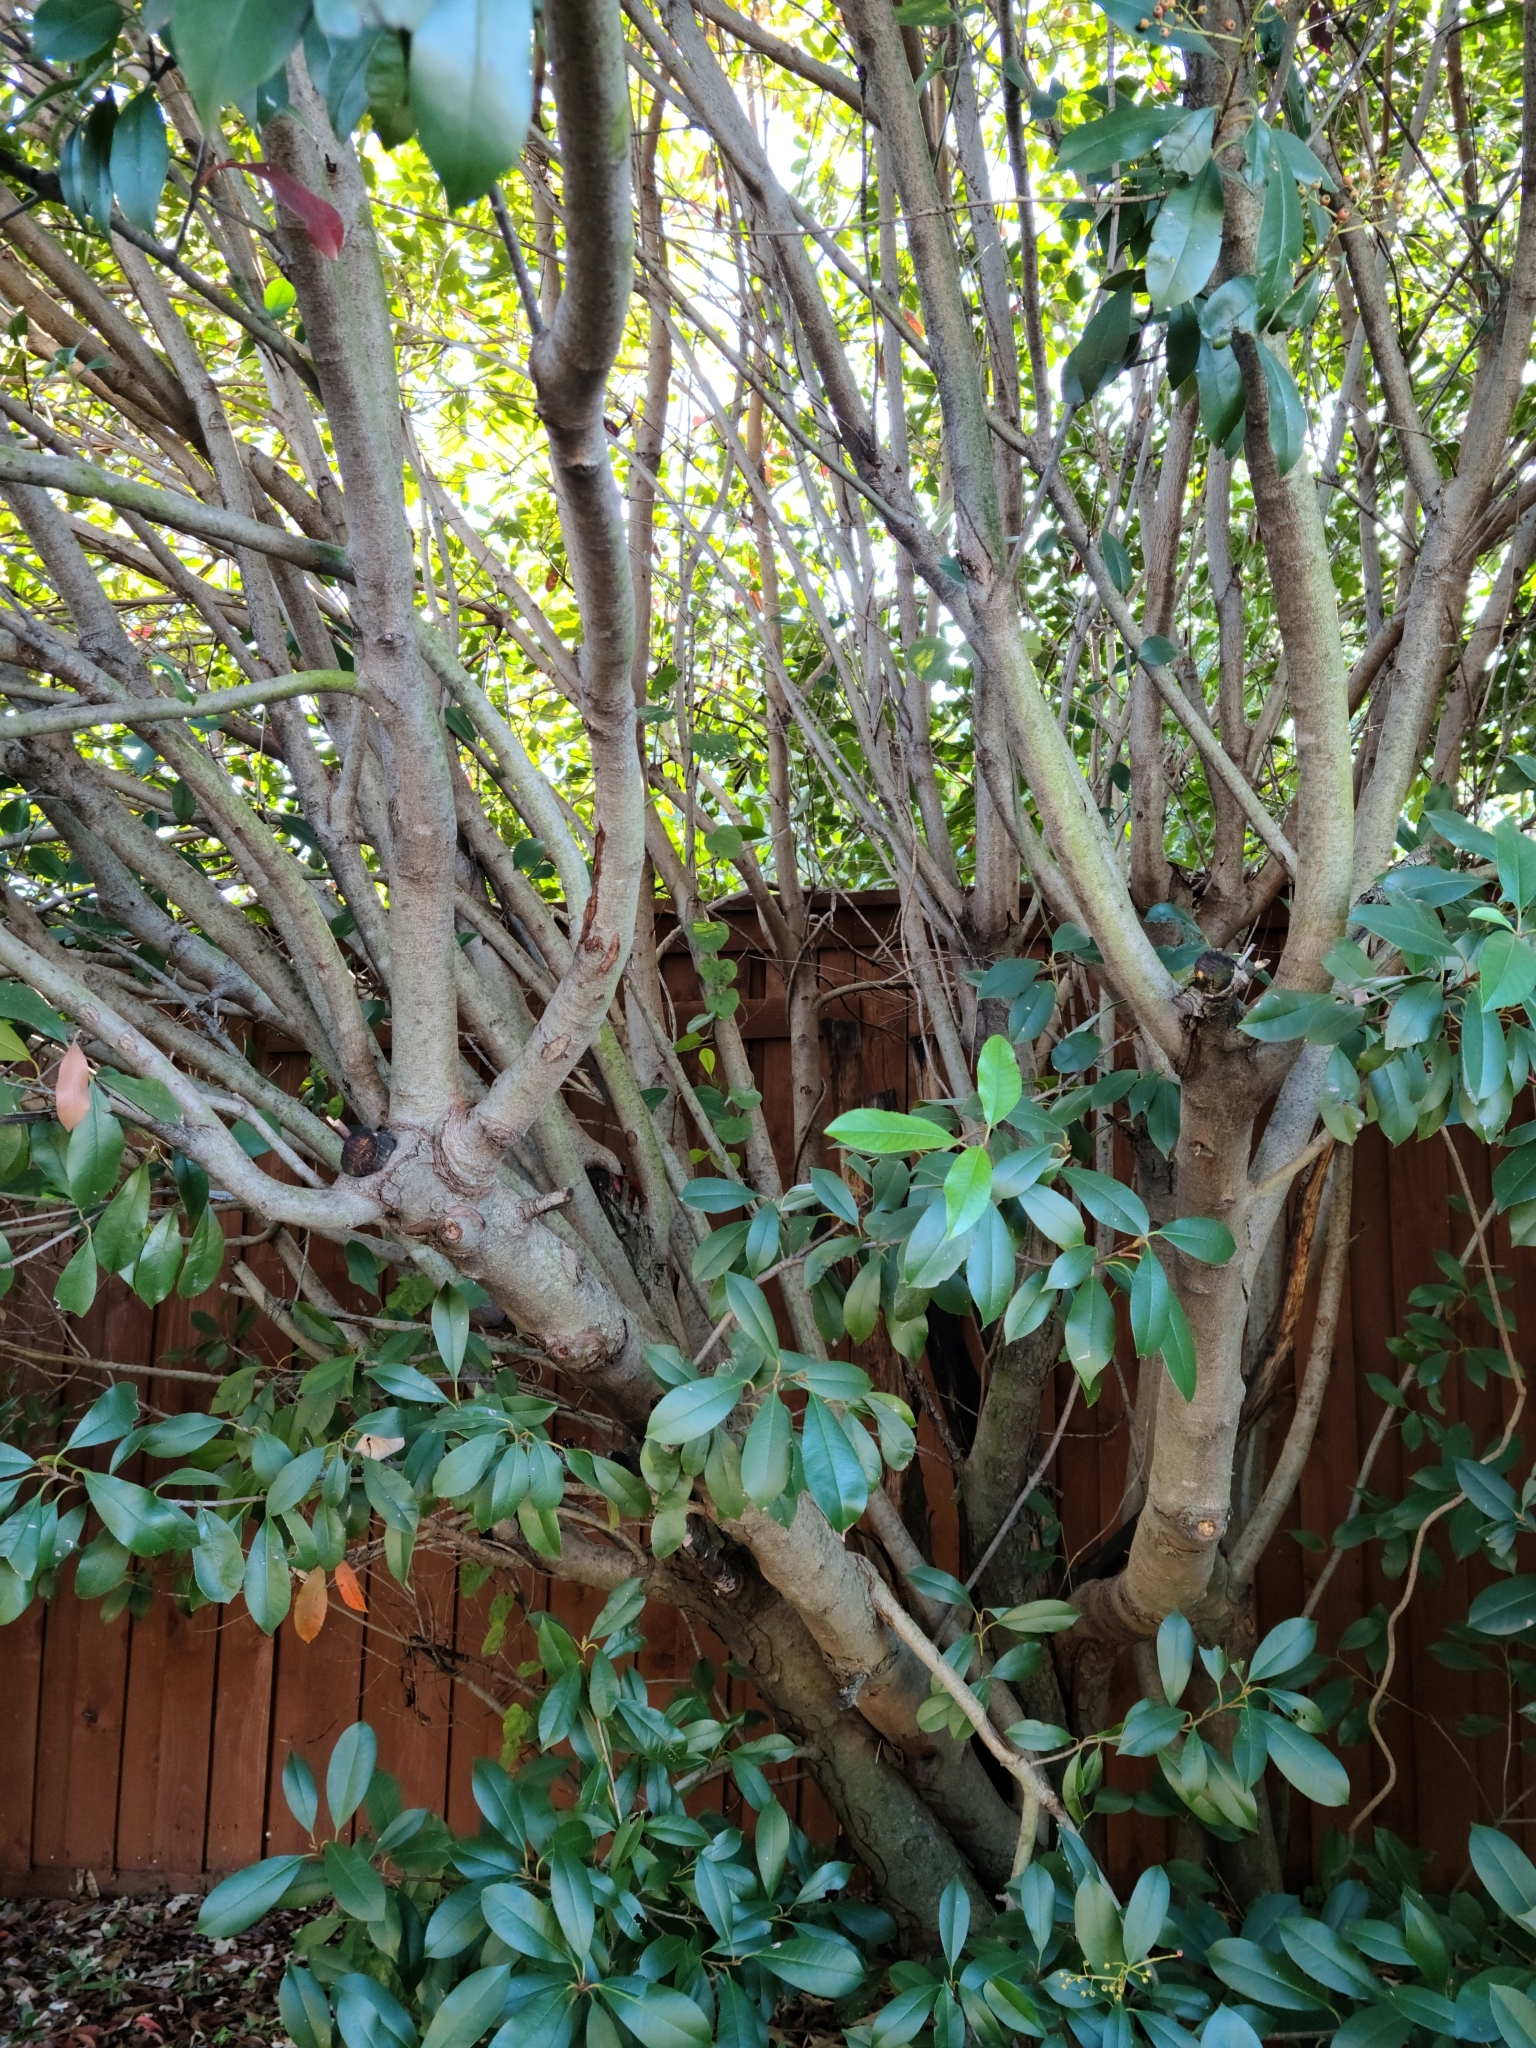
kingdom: Plantae
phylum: Tracheophyta
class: Magnoliopsida
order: Rosales
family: Rosaceae
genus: Photinia
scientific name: Photinia serratifolia
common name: Taiwanese photinia
